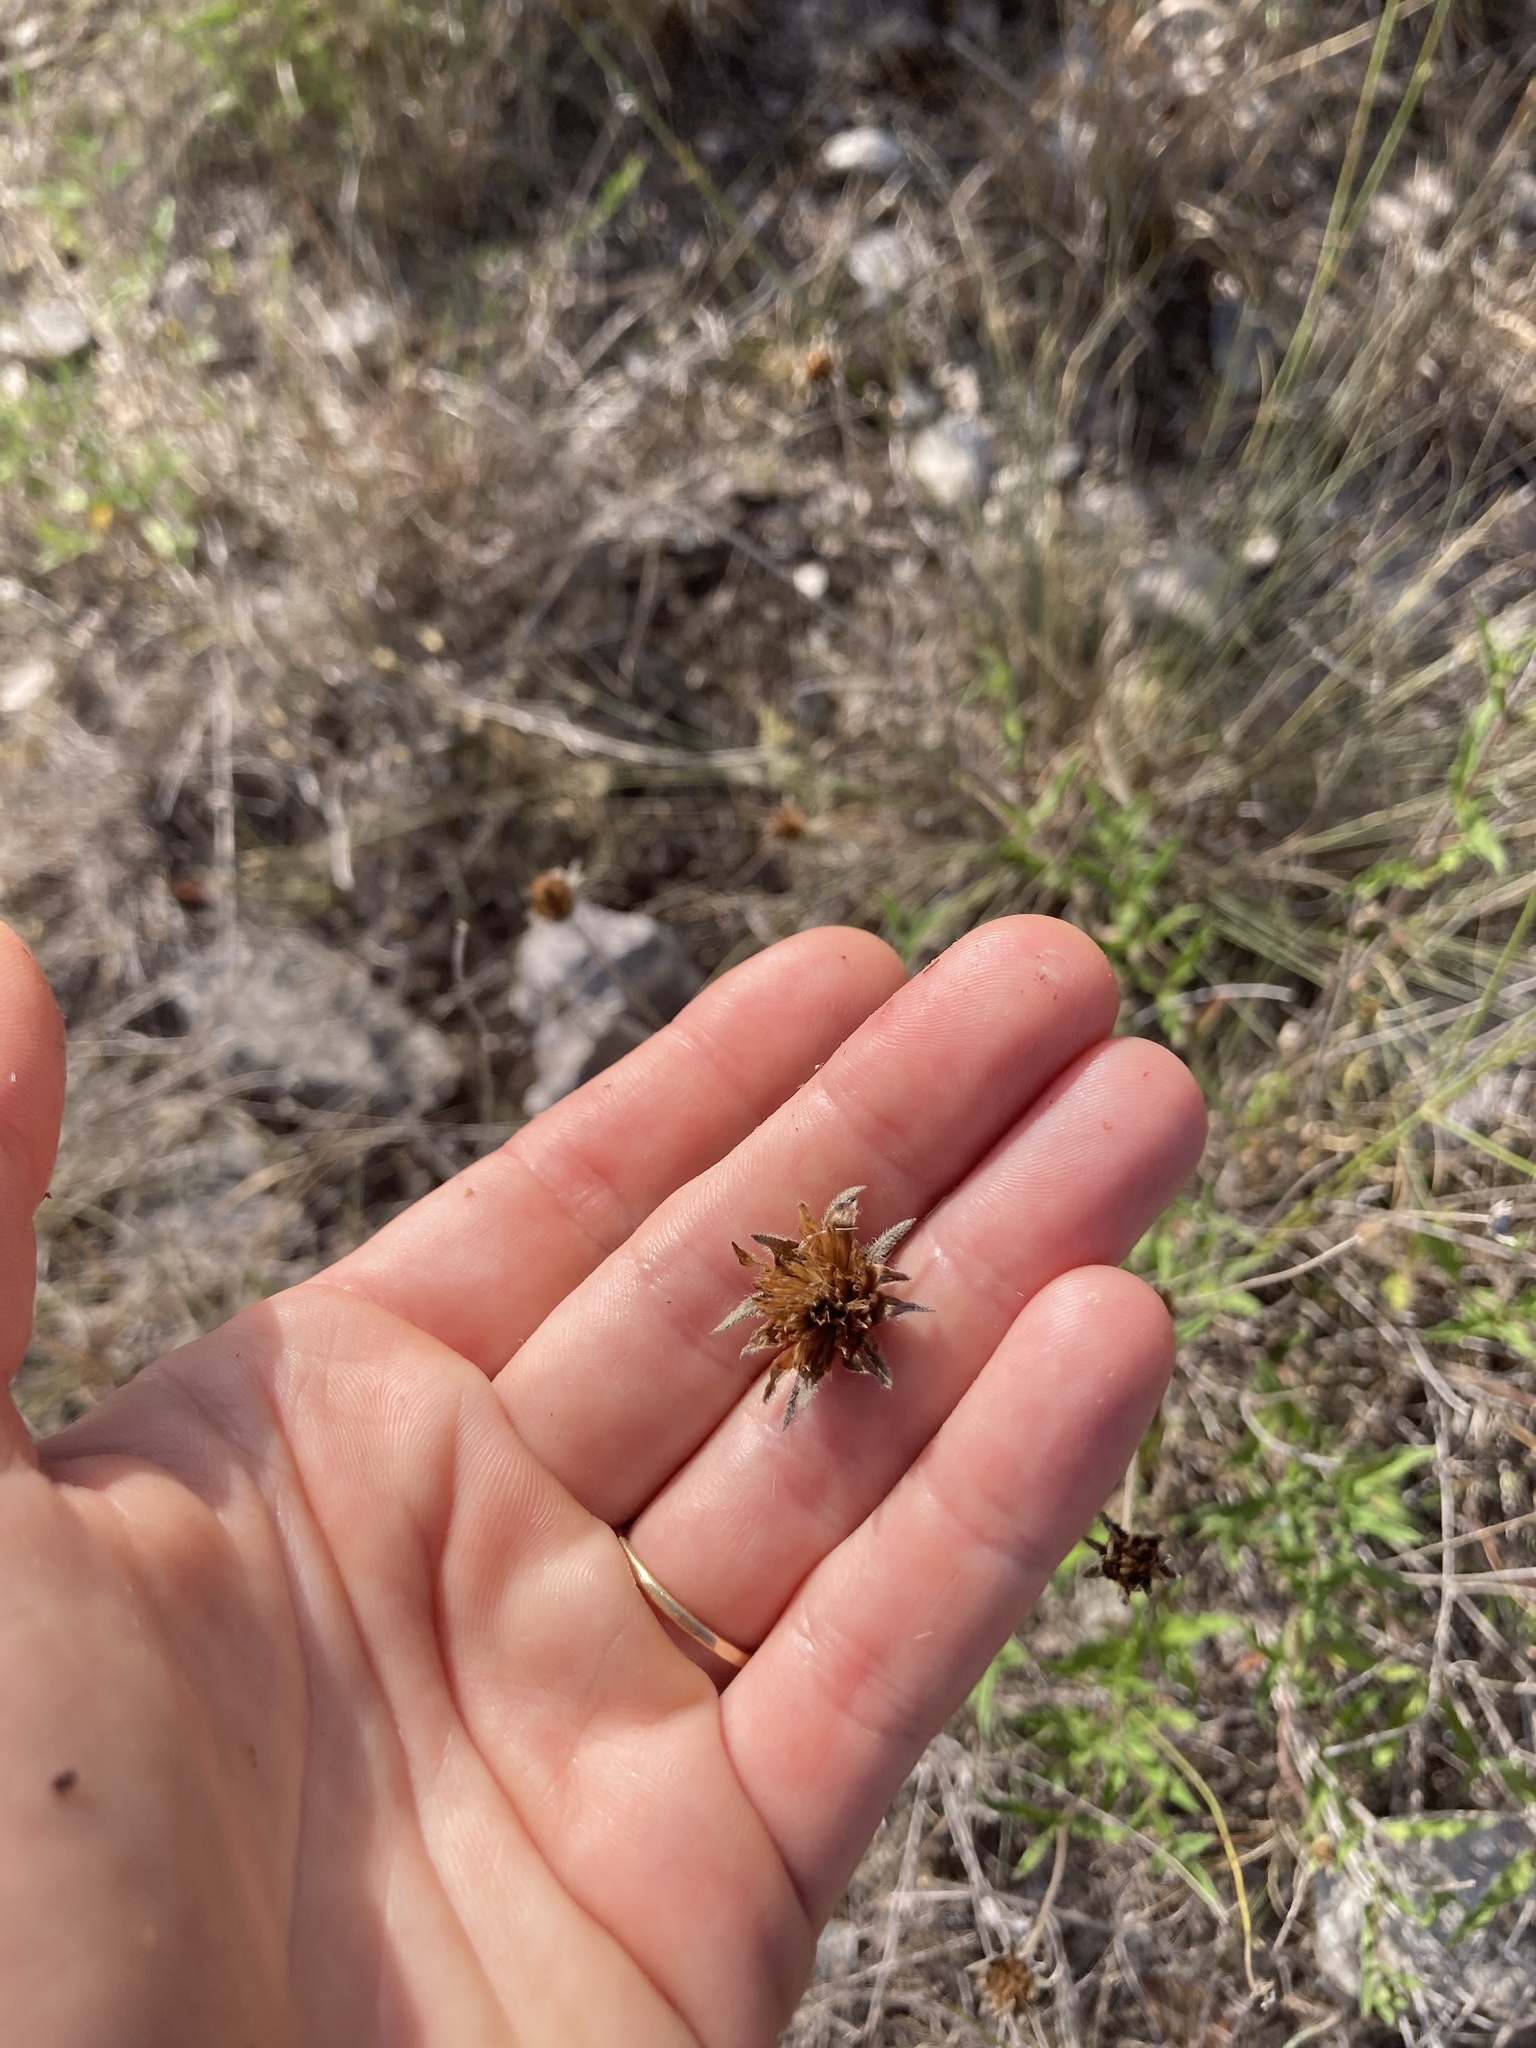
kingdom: Plantae
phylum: Tracheophyta
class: Magnoliopsida
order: Asterales
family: Asteraceae
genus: Wedelia
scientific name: Wedelia acapulcensis
